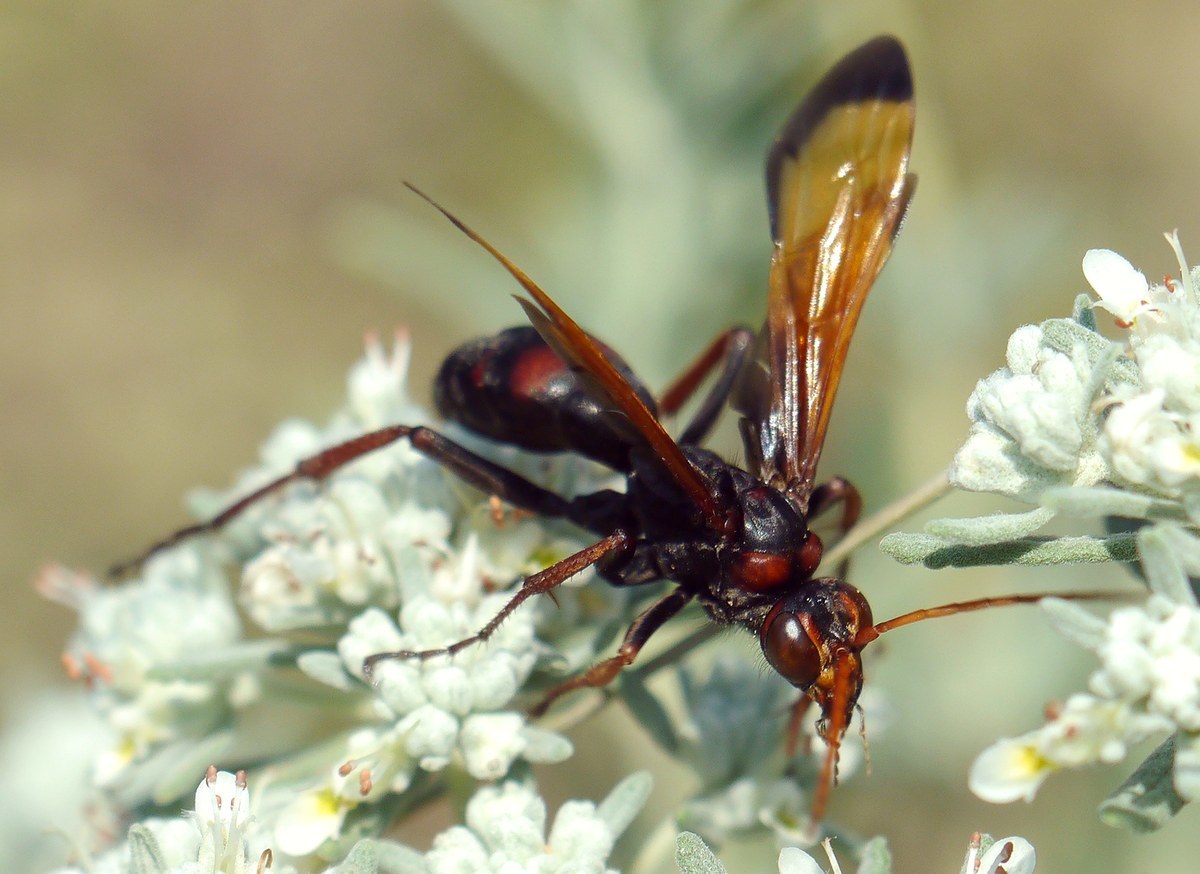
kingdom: Animalia
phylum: Arthropoda
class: Insecta
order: Hymenoptera
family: Pompilidae
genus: Cryptocheilus
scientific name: Cryptocheilus rubellus
